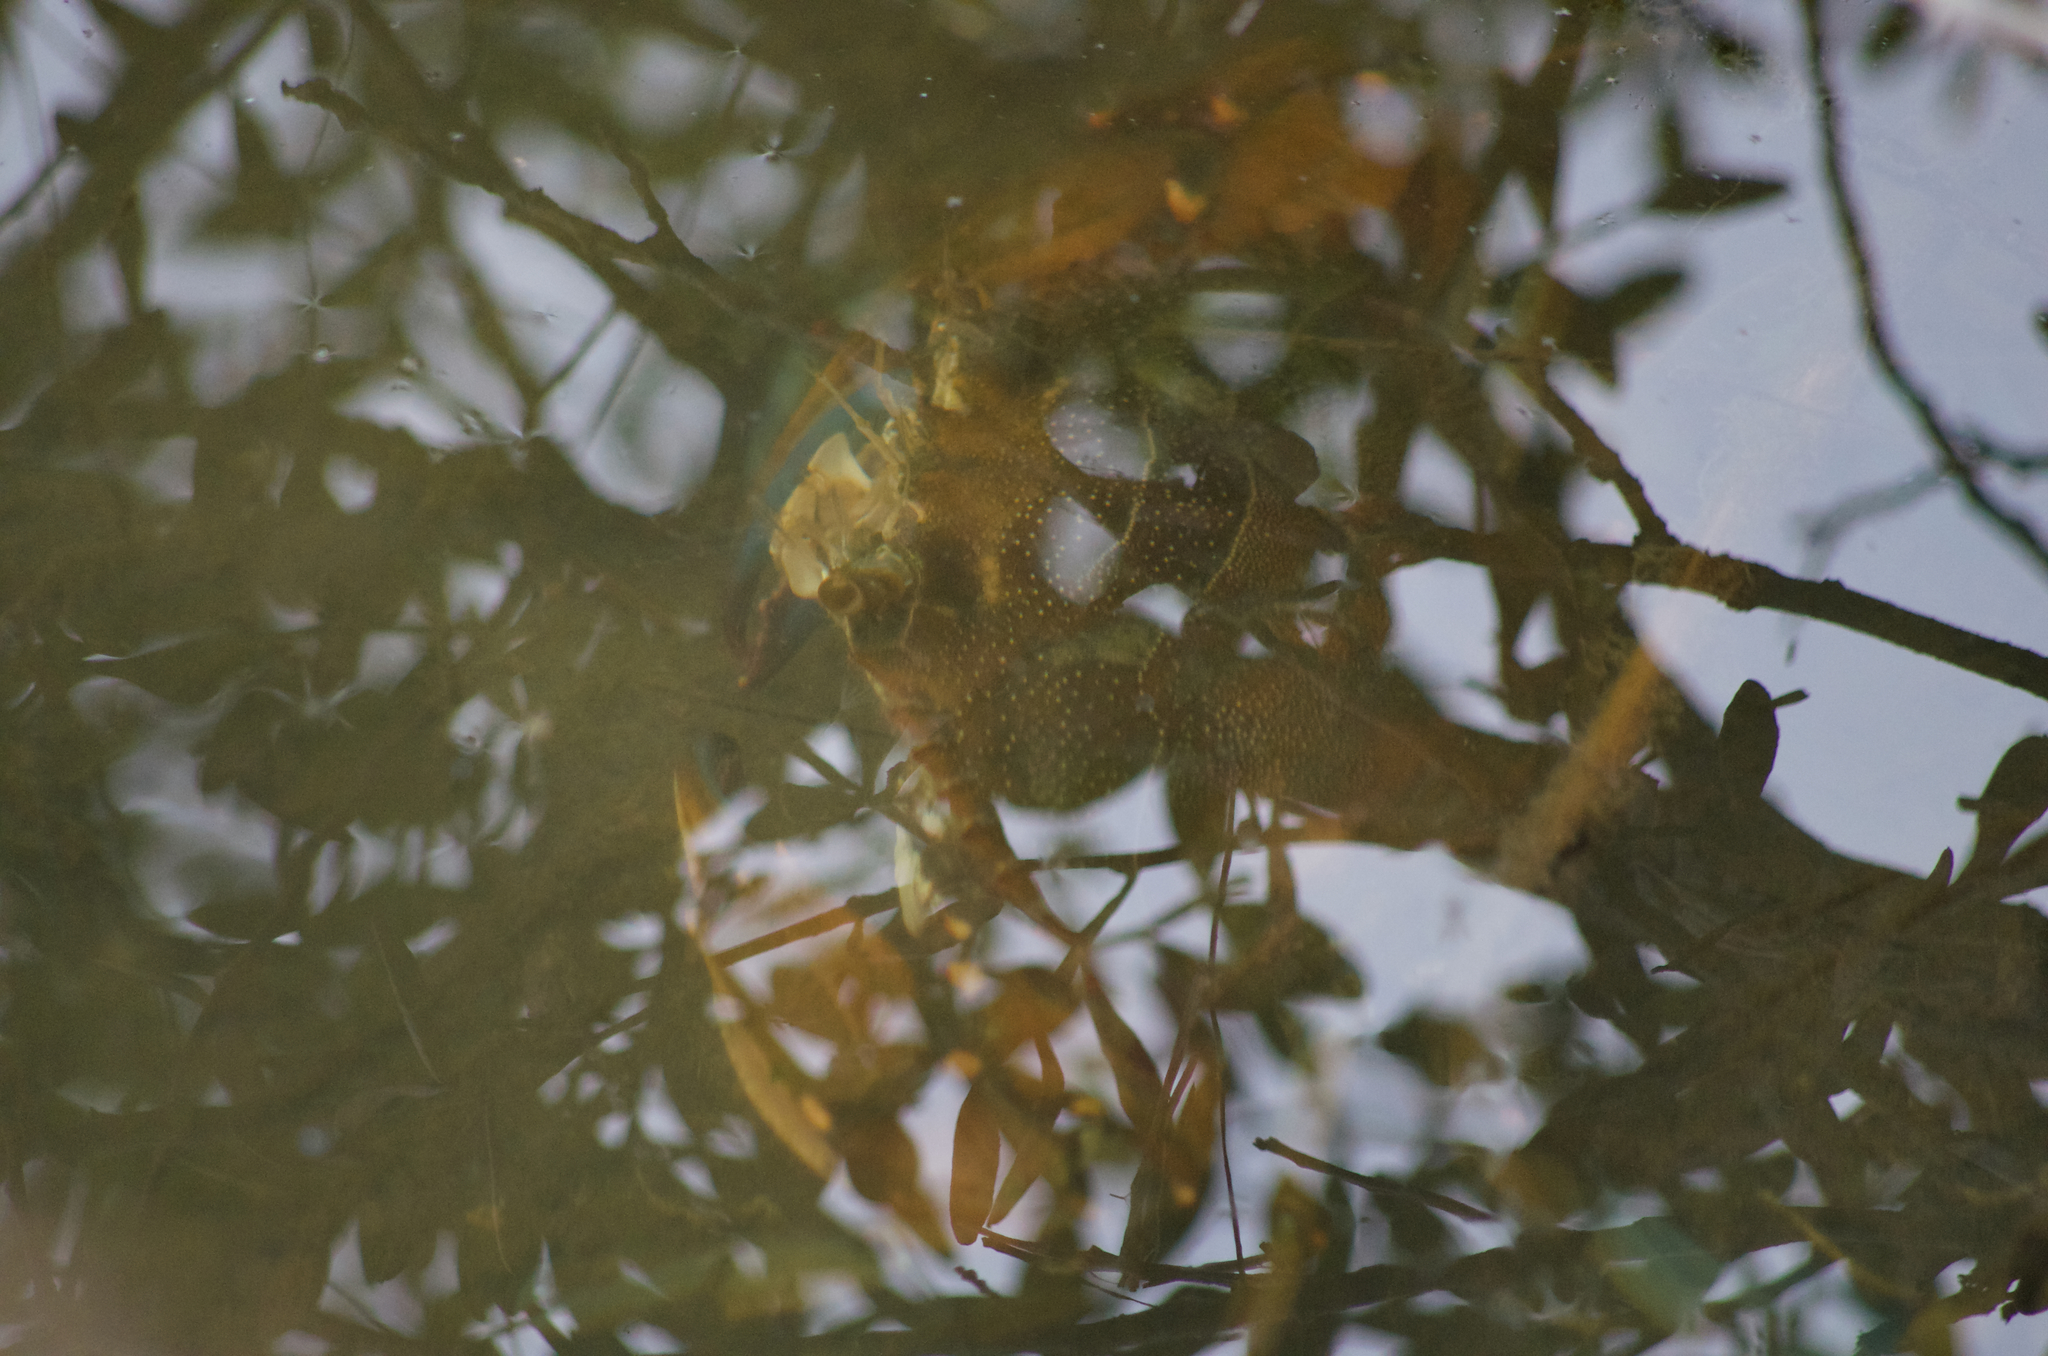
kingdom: Animalia
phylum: Arthropoda
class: Malacostraca
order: Decapoda
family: Portunidae
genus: Callinectes
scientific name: Callinectes sapidus
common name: Blue crab
